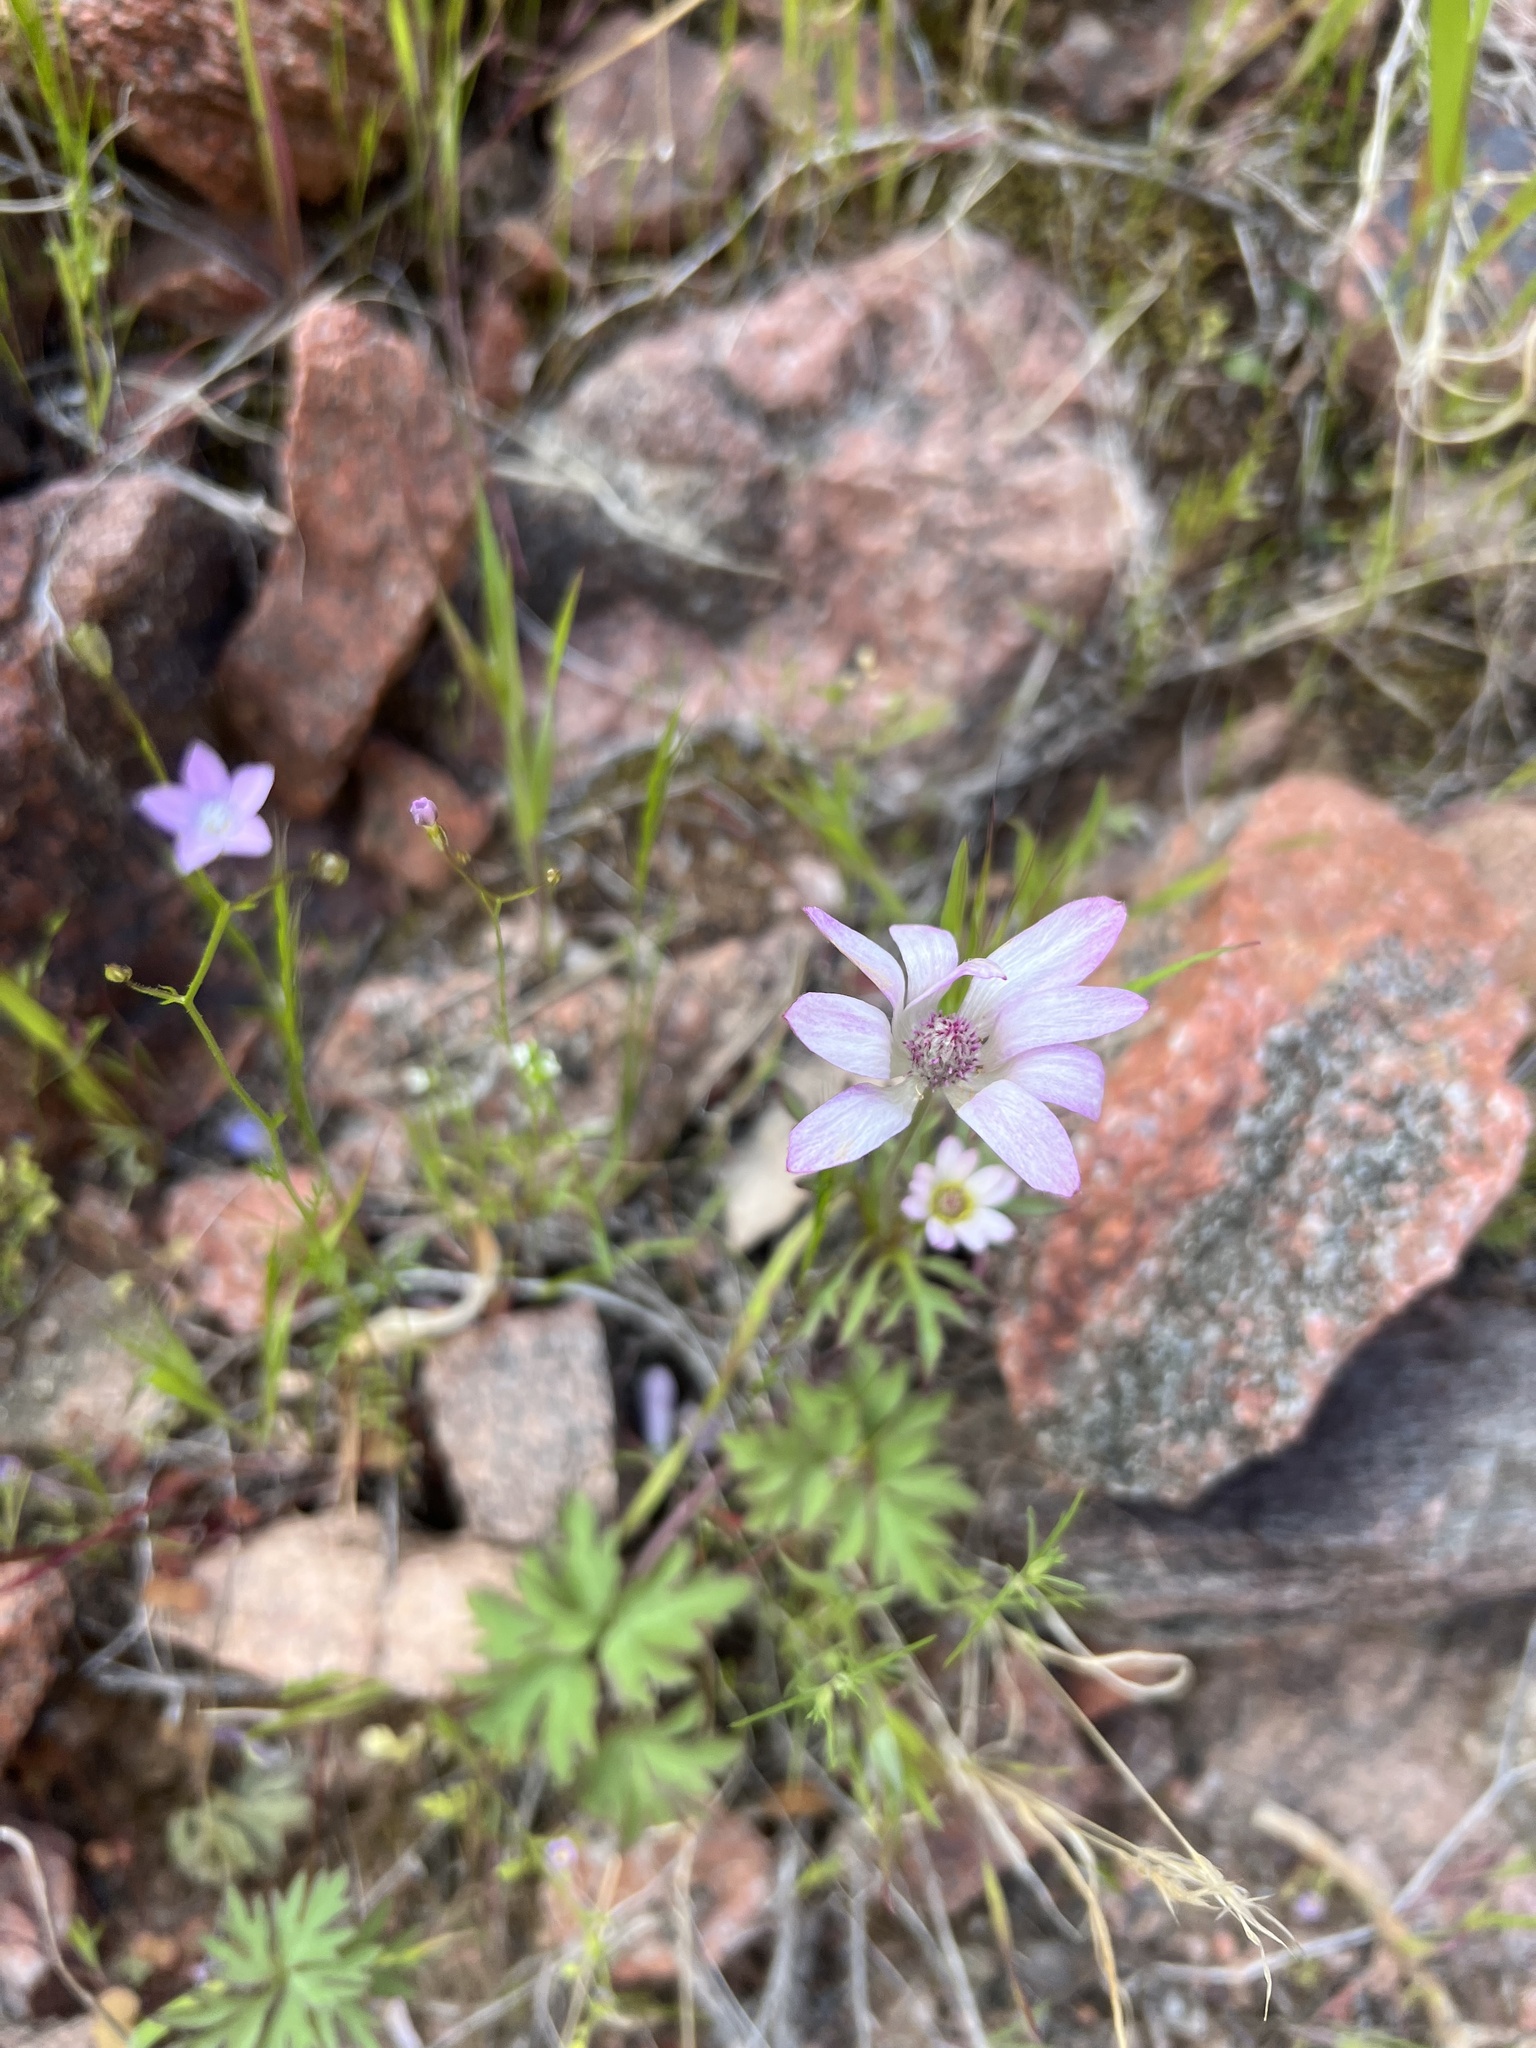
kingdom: Plantae
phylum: Tracheophyta
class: Magnoliopsida
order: Ranunculales
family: Ranunculaceae
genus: Anemone
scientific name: Anemone tuberosa
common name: Desert anemone
